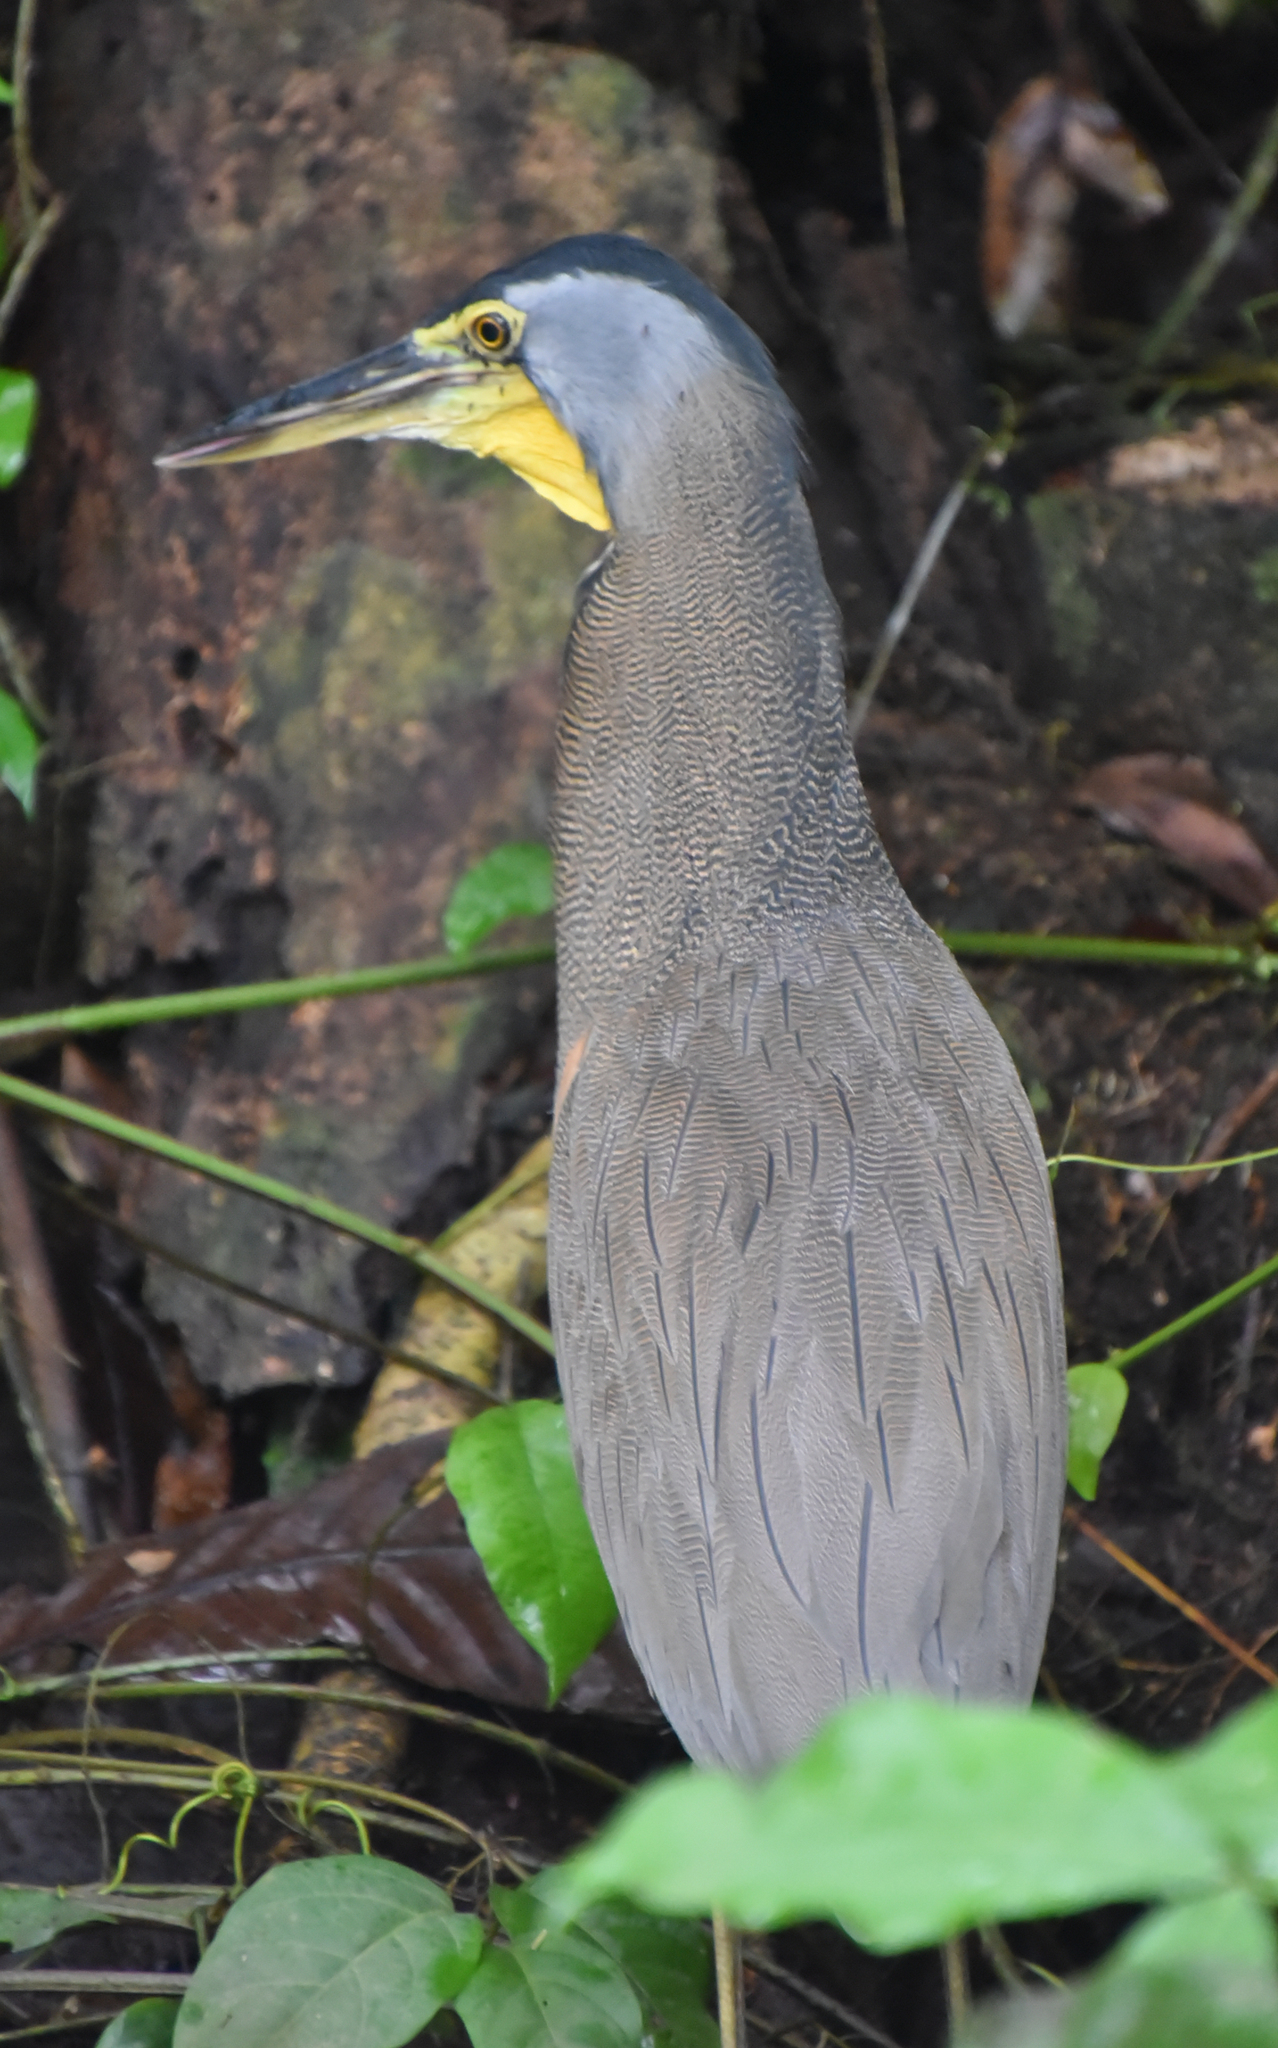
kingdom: Animalia
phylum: Chordata
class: Aves
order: Pelecaniformes
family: Ardeidae
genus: Tigrisoma
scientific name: Tigrisoma mexicanum
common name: Bare-throated tiger-heron
